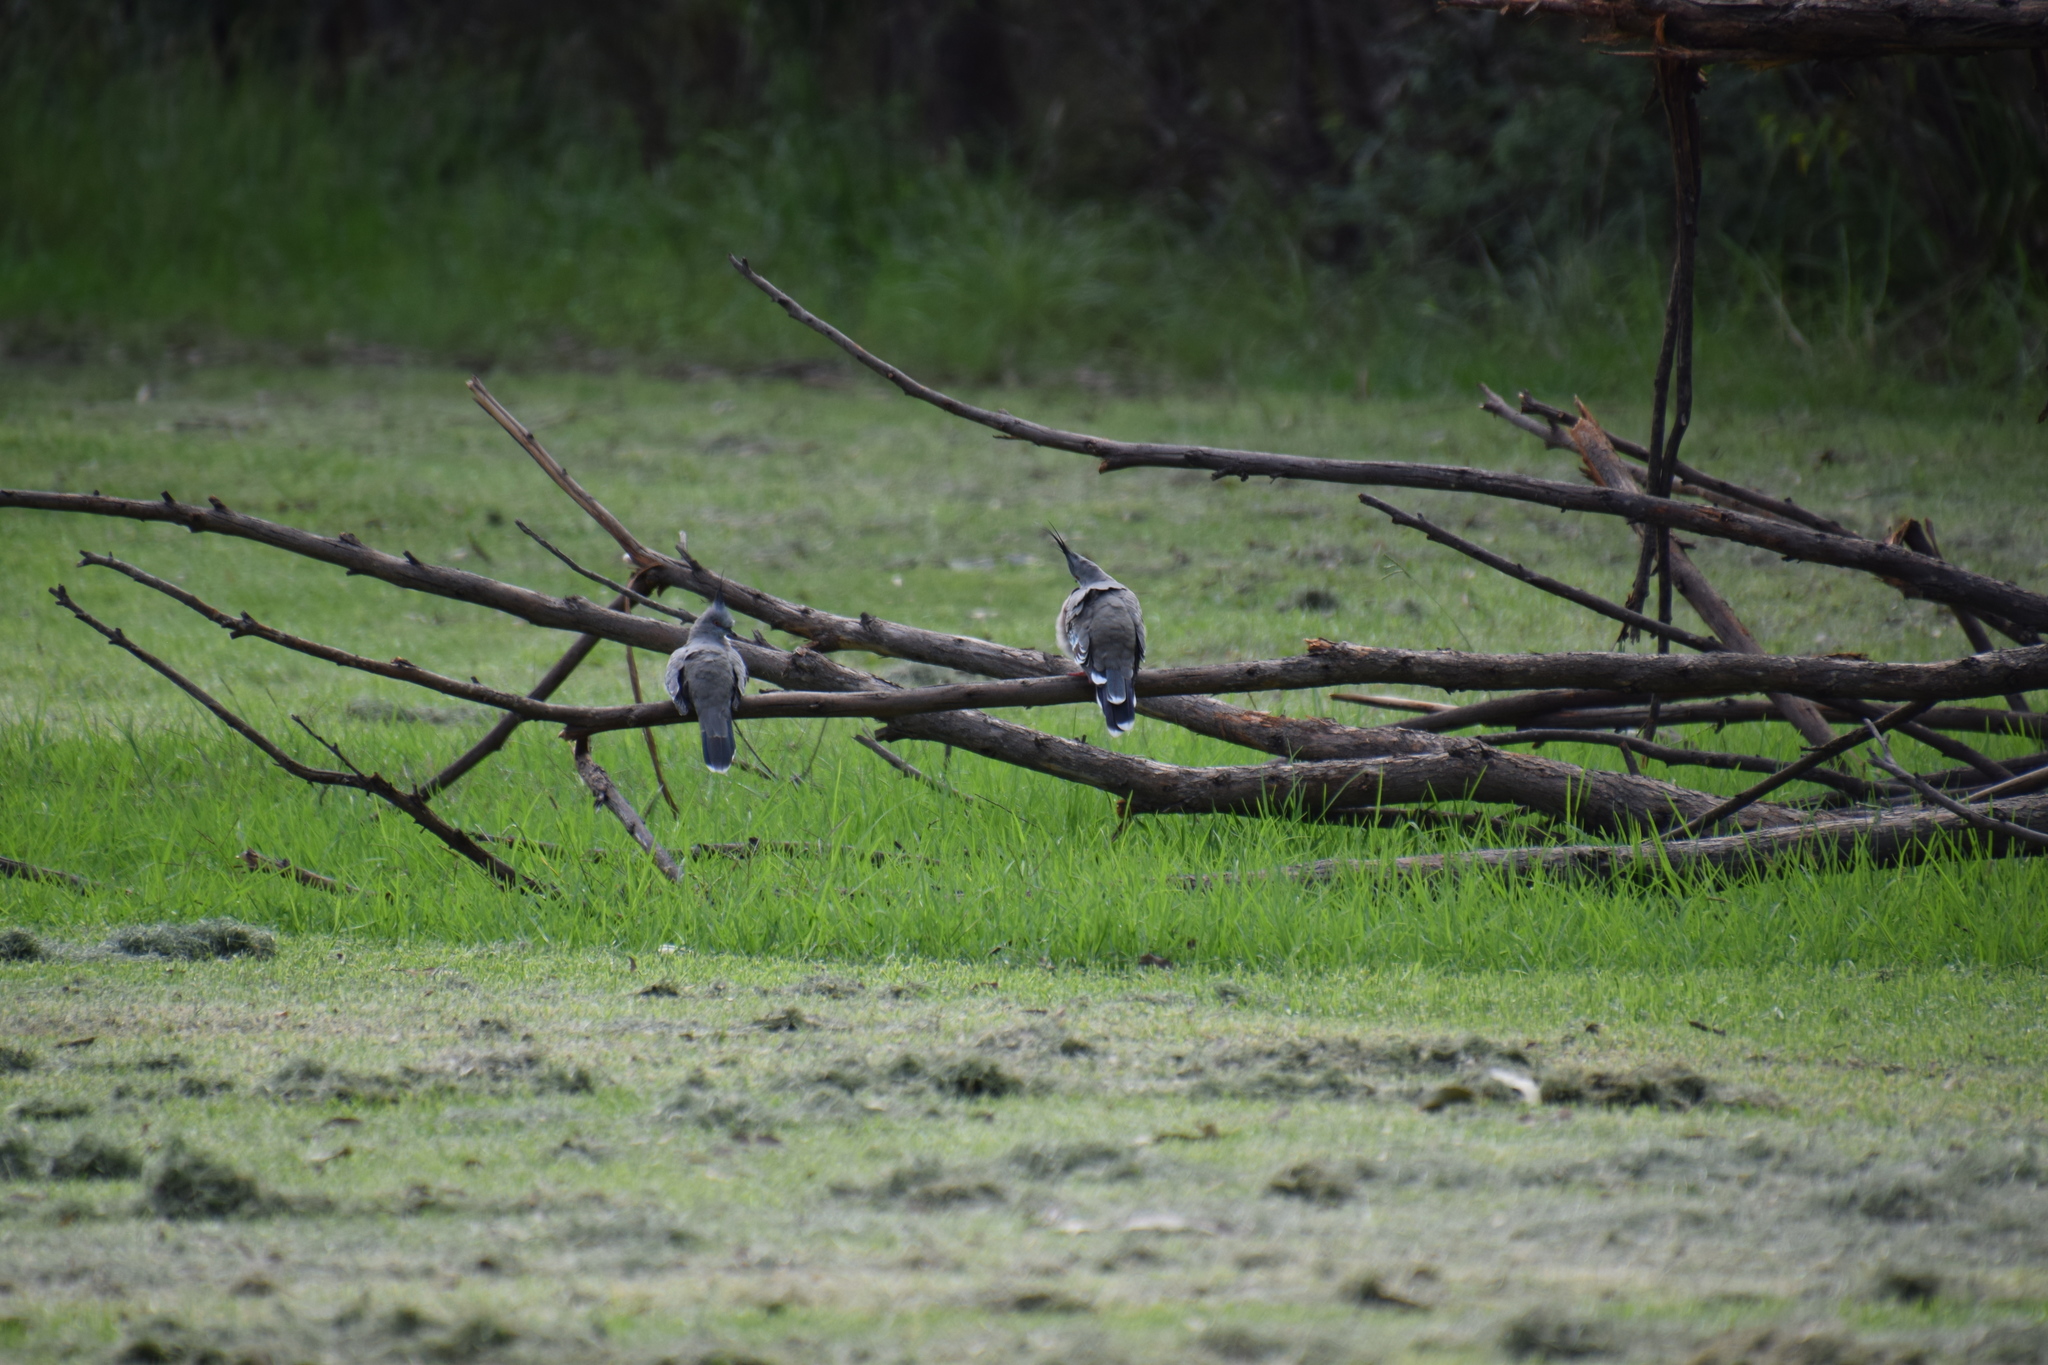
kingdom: Animalia
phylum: Chordata
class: Aves
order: Columbiformes
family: Columbidae
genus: Ocyphaps
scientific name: Ocyphaps lophotes
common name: Crested pigeon
